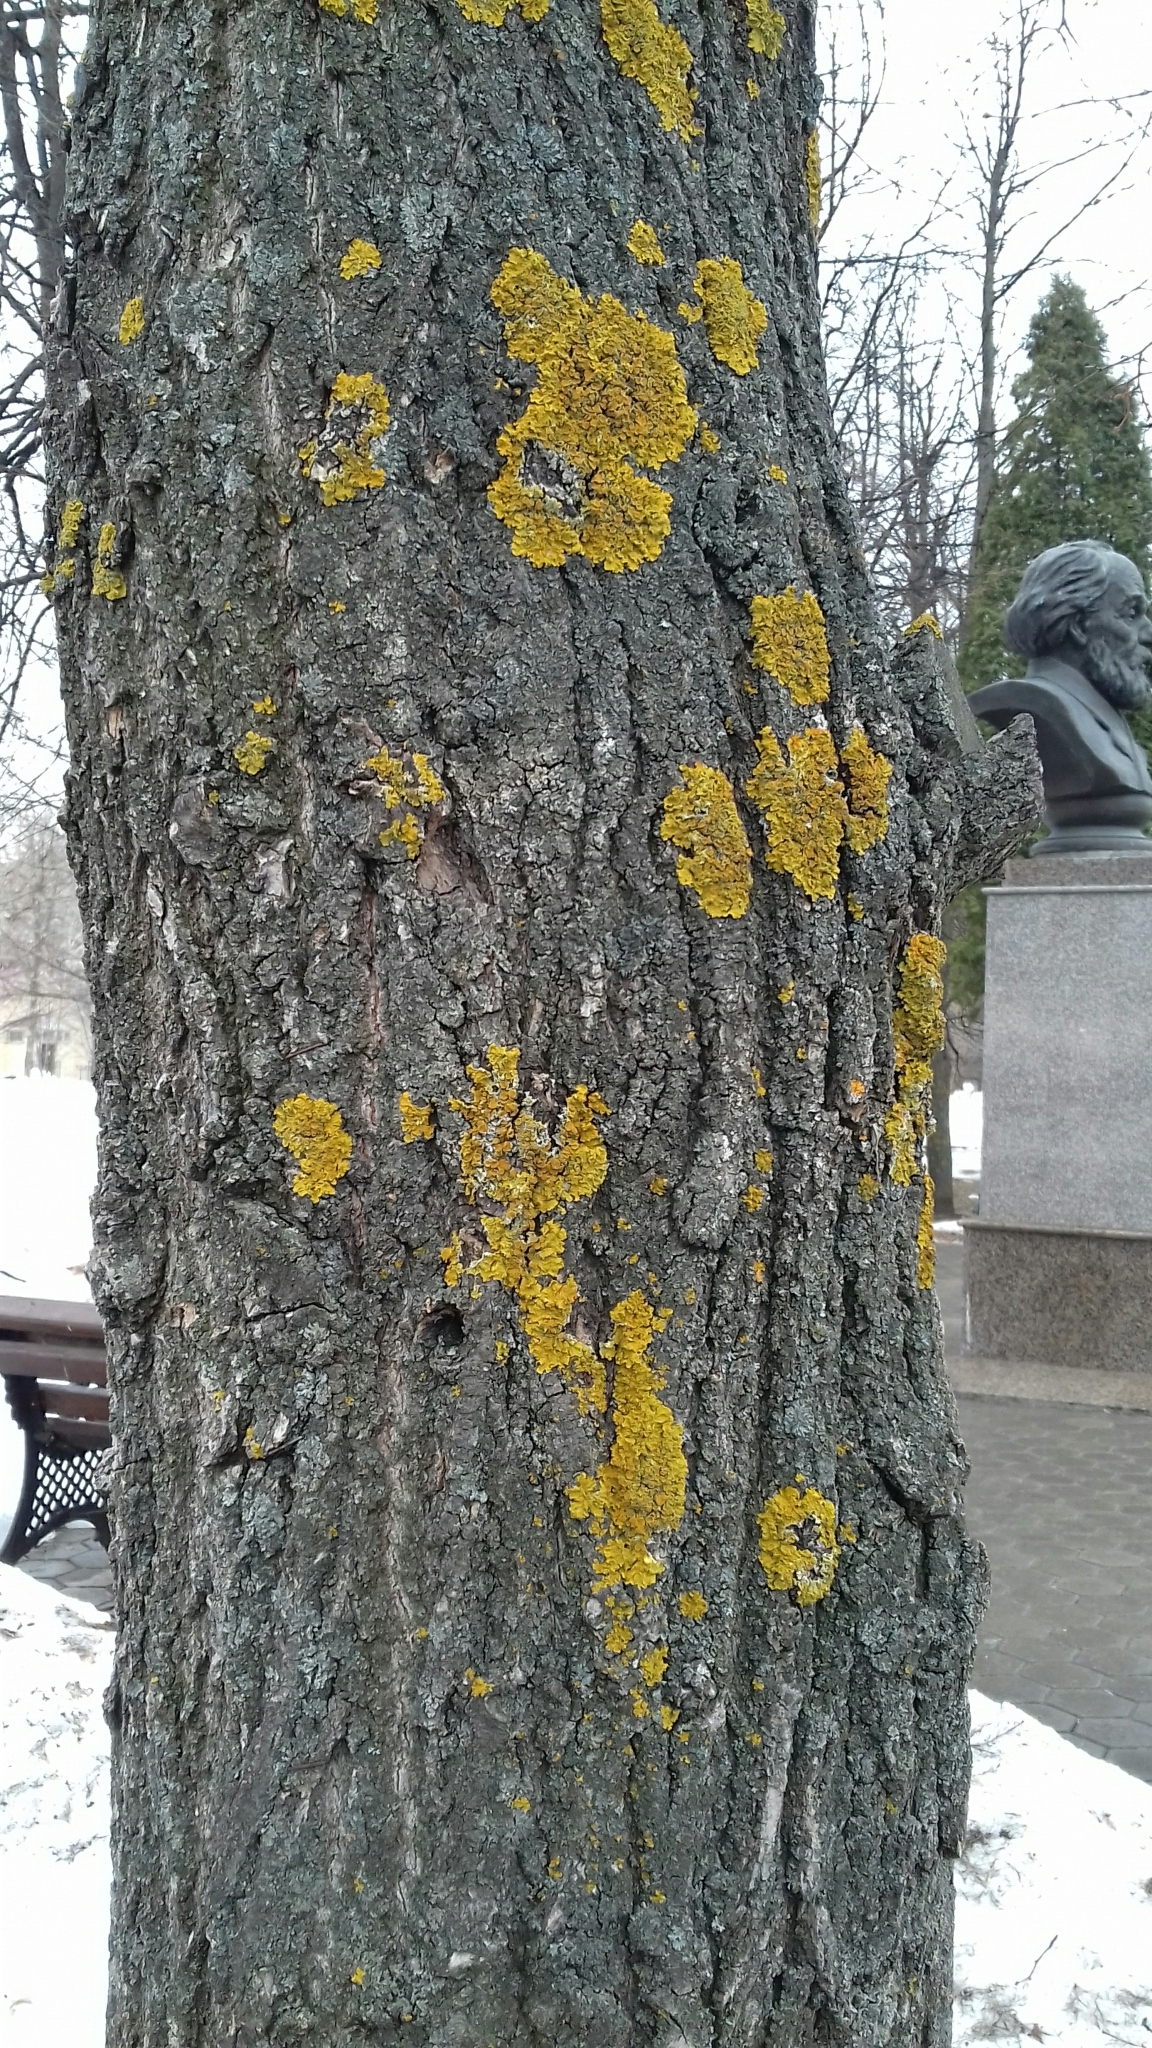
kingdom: Fungi
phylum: Ascomycota
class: Lecanoromycetes
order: Teloschistales
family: Teloschistaceae
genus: Xanthoria
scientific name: Xanthoria parietina
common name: Common orange lichen
